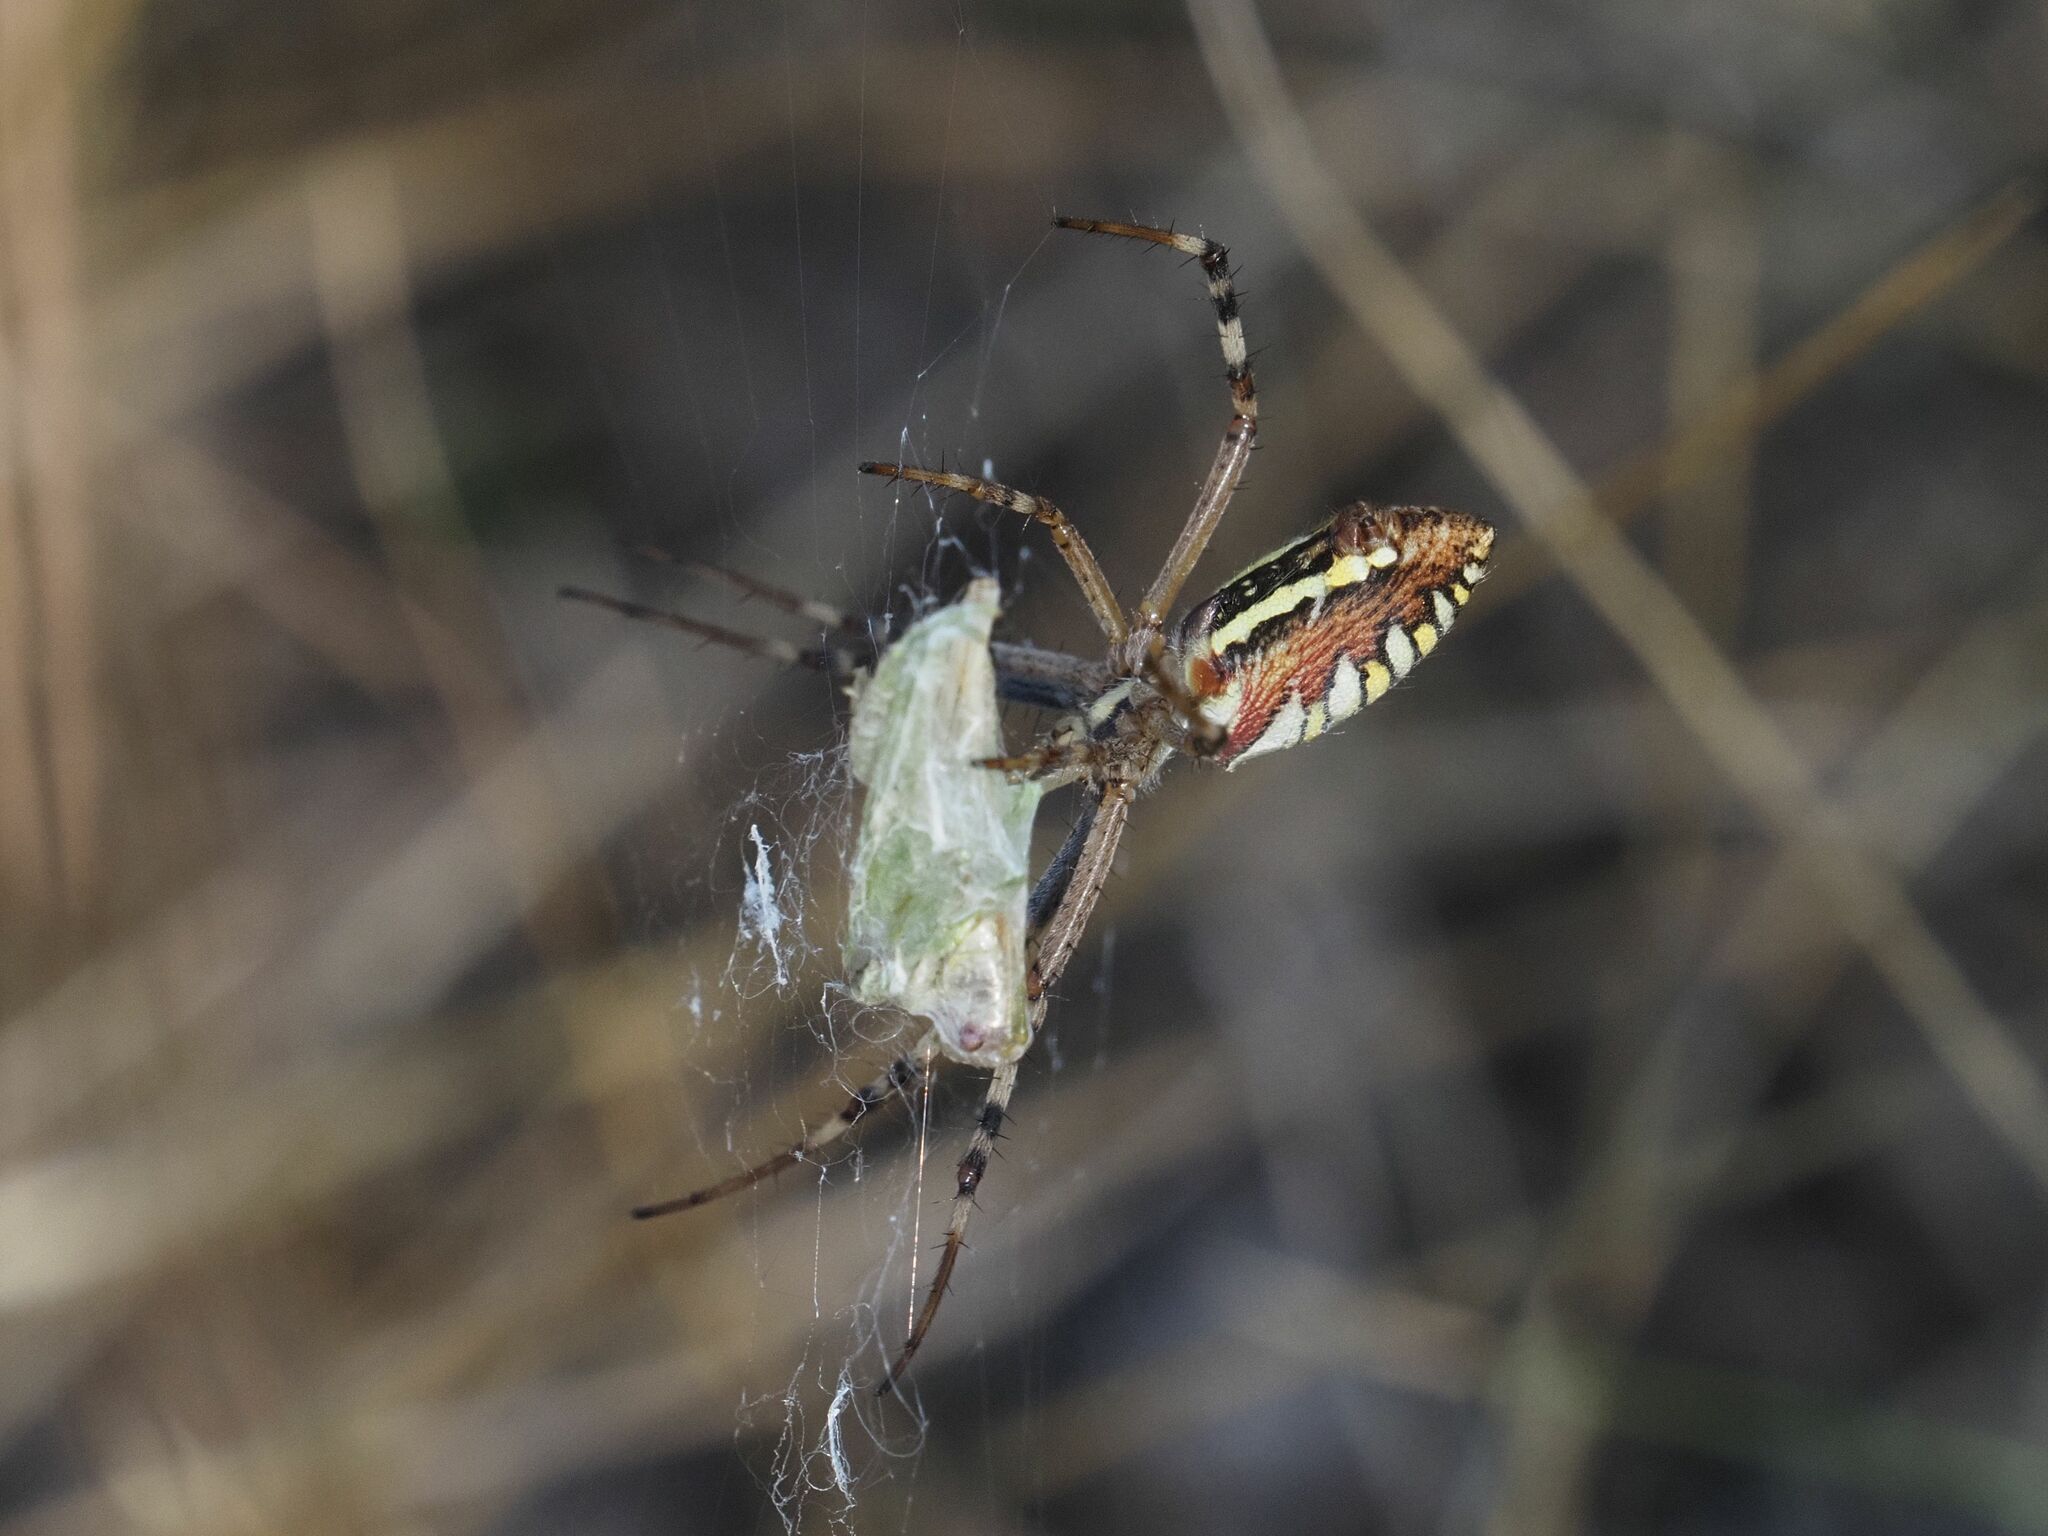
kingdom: Animalia
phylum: Arthropoda
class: Arachnida
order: Araneae
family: Araneidae
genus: Argiope
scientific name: Argiope bruennichi
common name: Wasp spider
